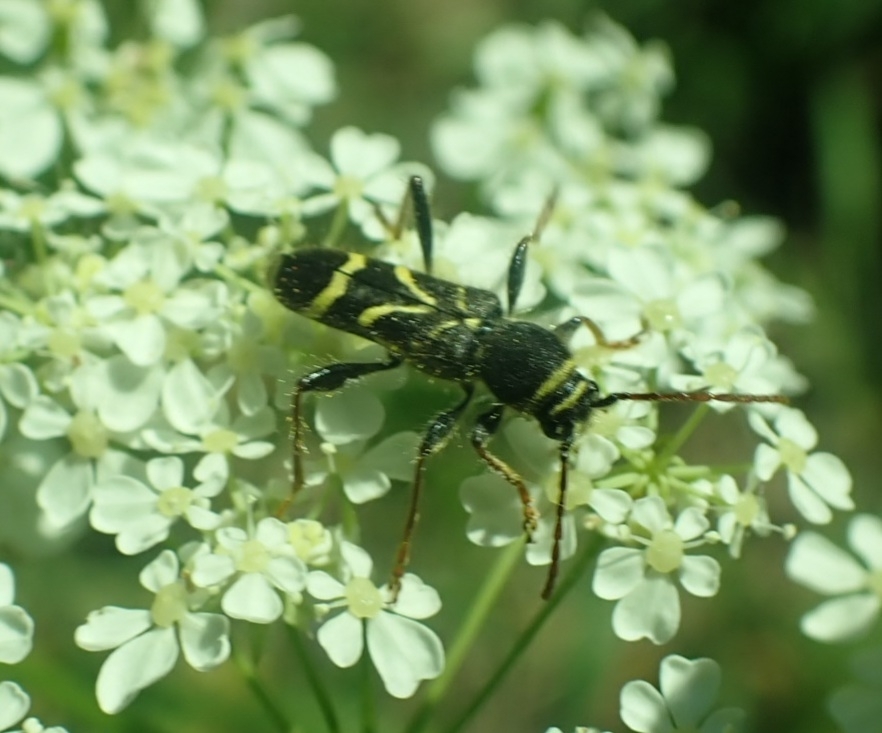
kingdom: Animalia
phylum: Arthropoda
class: Insecta
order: Coleoptera
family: Cerambycidae
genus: Cyrtoclytus
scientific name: Cyrtoclytus capra
